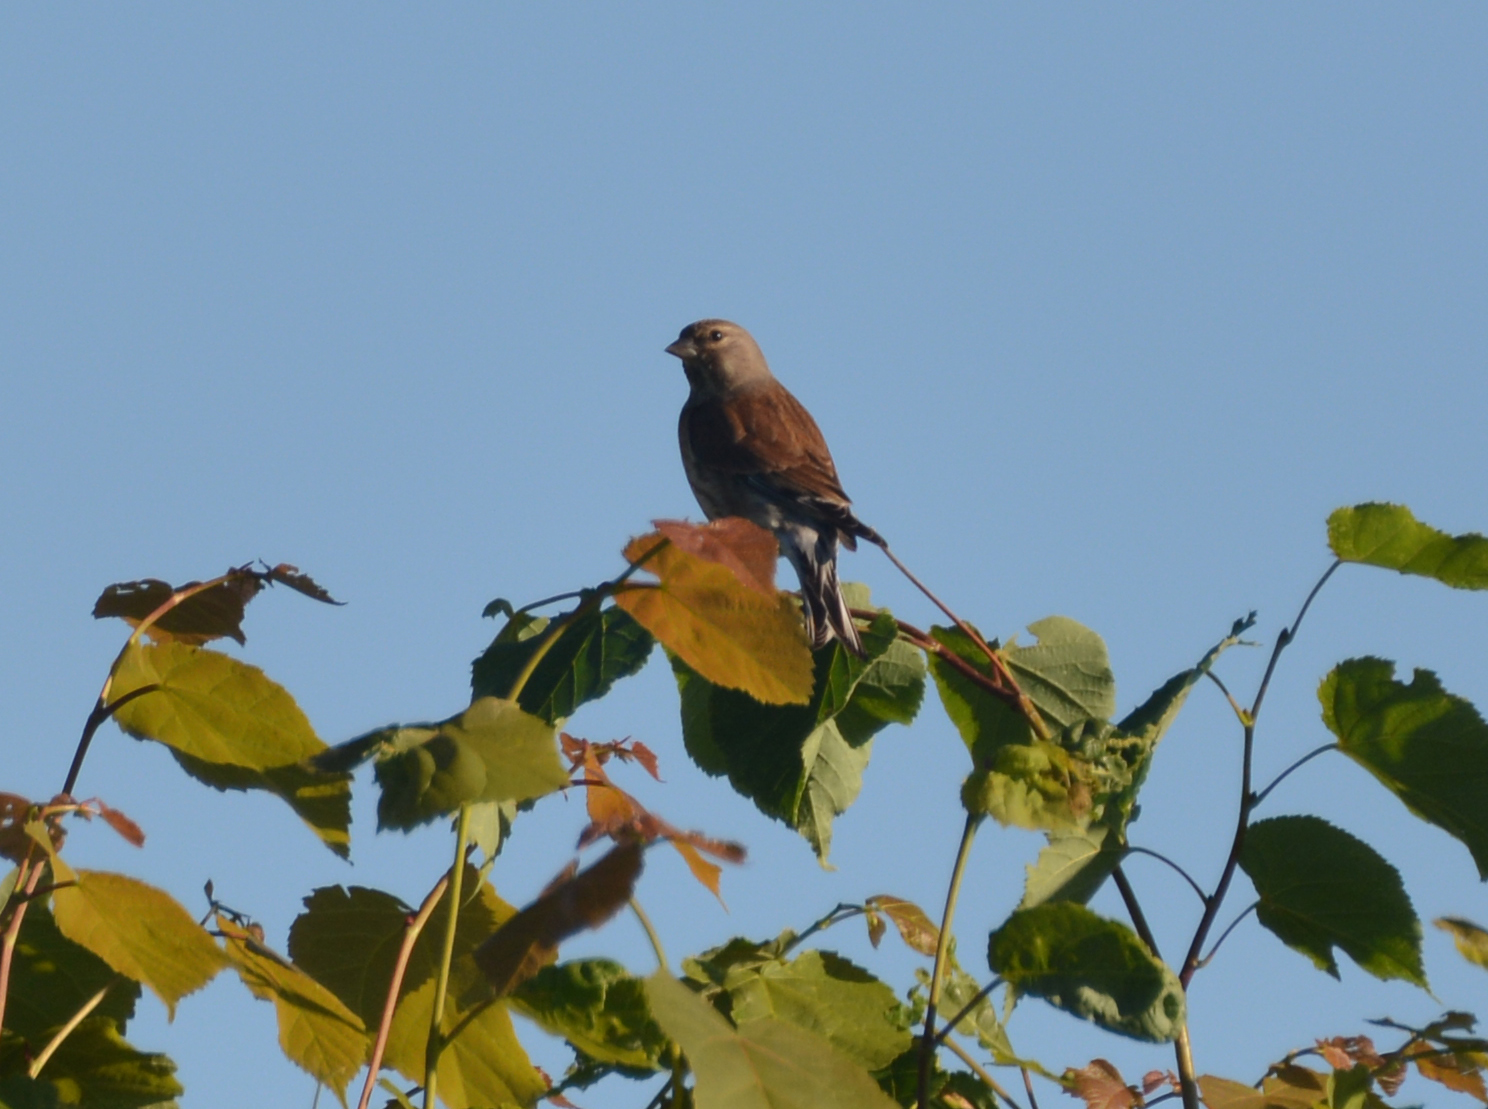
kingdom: Animalia
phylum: Chordata
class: Aves
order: Passeriformes
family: Fringillidae
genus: Linaria
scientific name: Linaria cannabina
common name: Common linnet
